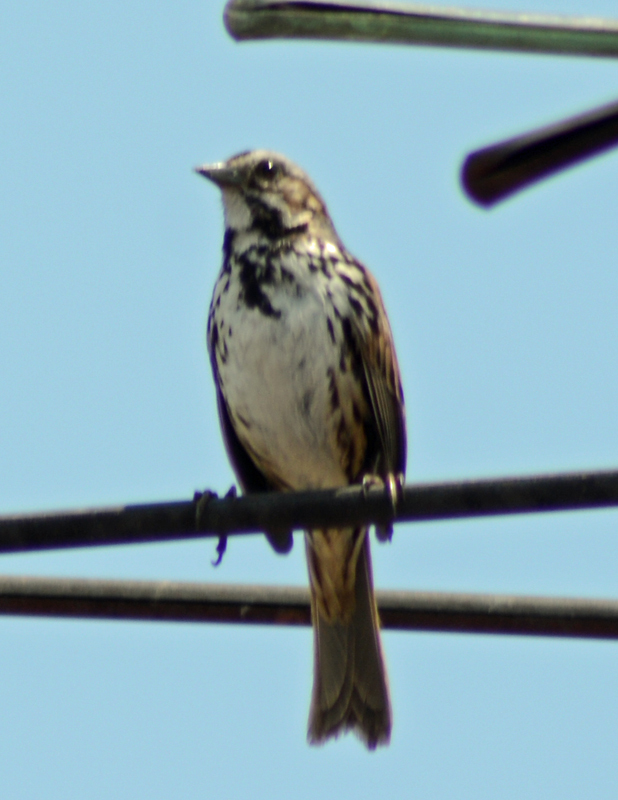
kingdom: Animalia
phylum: Chordata
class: Aves
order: Passeriformes
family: Passerellidae
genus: Melospiza
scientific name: Melospiza melodia
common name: Song sparrow
